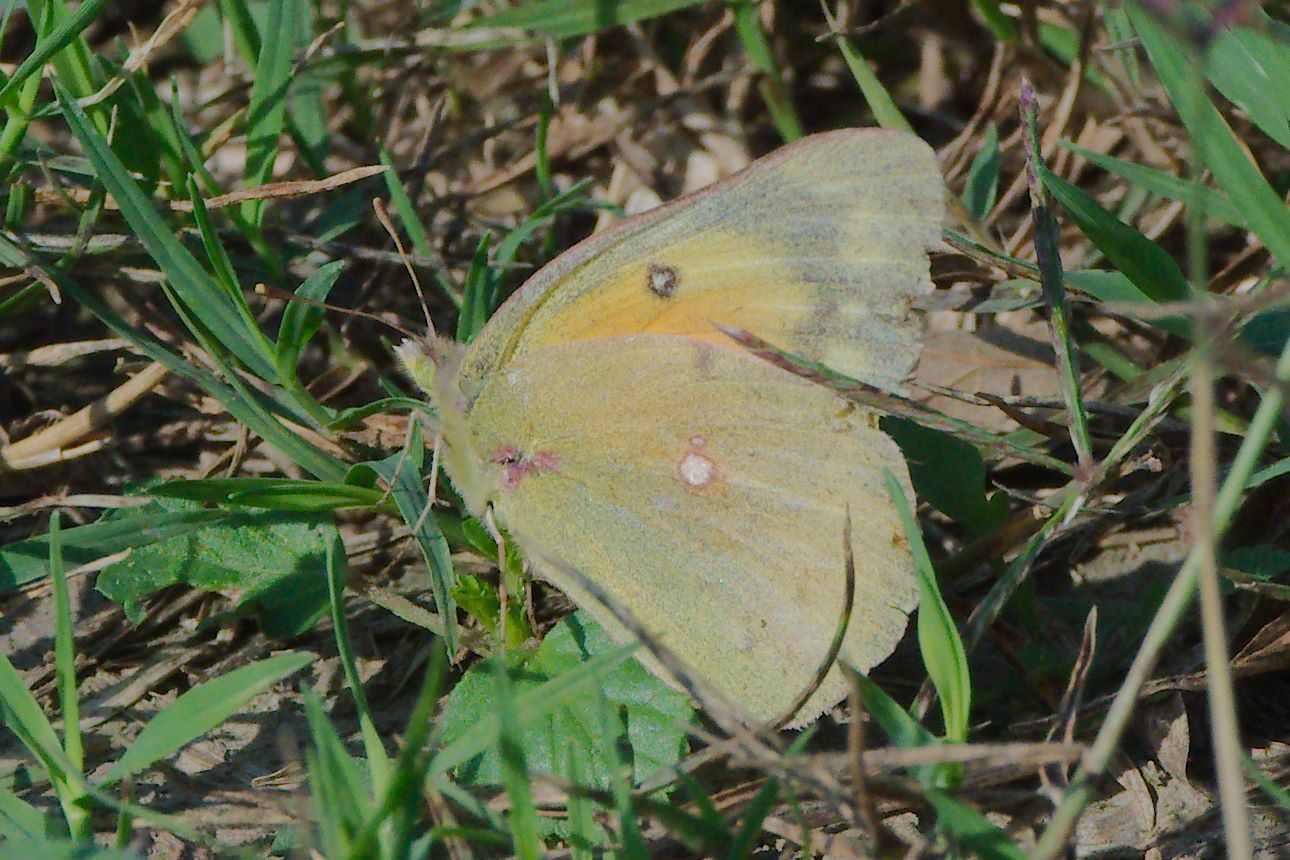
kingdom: Animalia
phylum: Arthropoda
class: Insecta
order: Lepidoptera
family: Pieridae
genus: Colias
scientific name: Colias eurytheme
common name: Alfalfa butterfly
